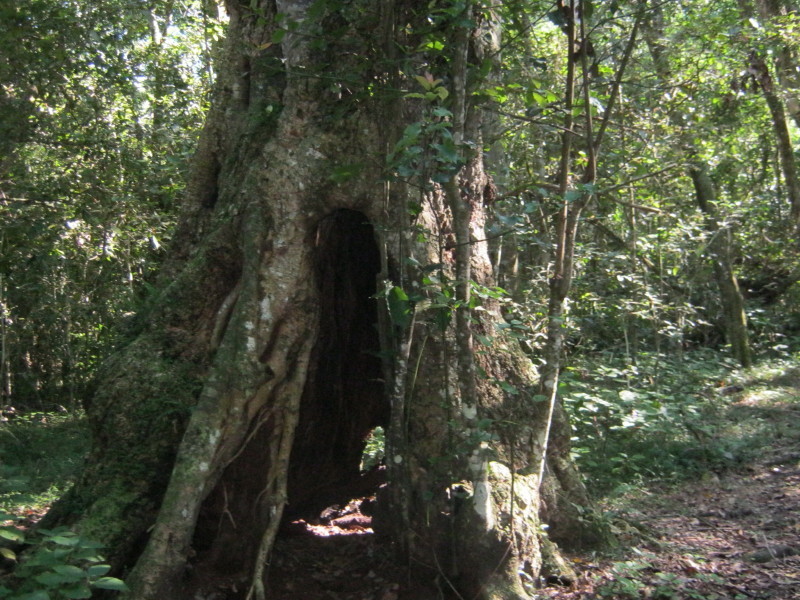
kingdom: Plantae
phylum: Tracheophyta
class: Magnoliopsida
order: Laurales
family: Lauraceae
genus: Ocotea
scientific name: Ocotea bullata
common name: Black stinkwood
